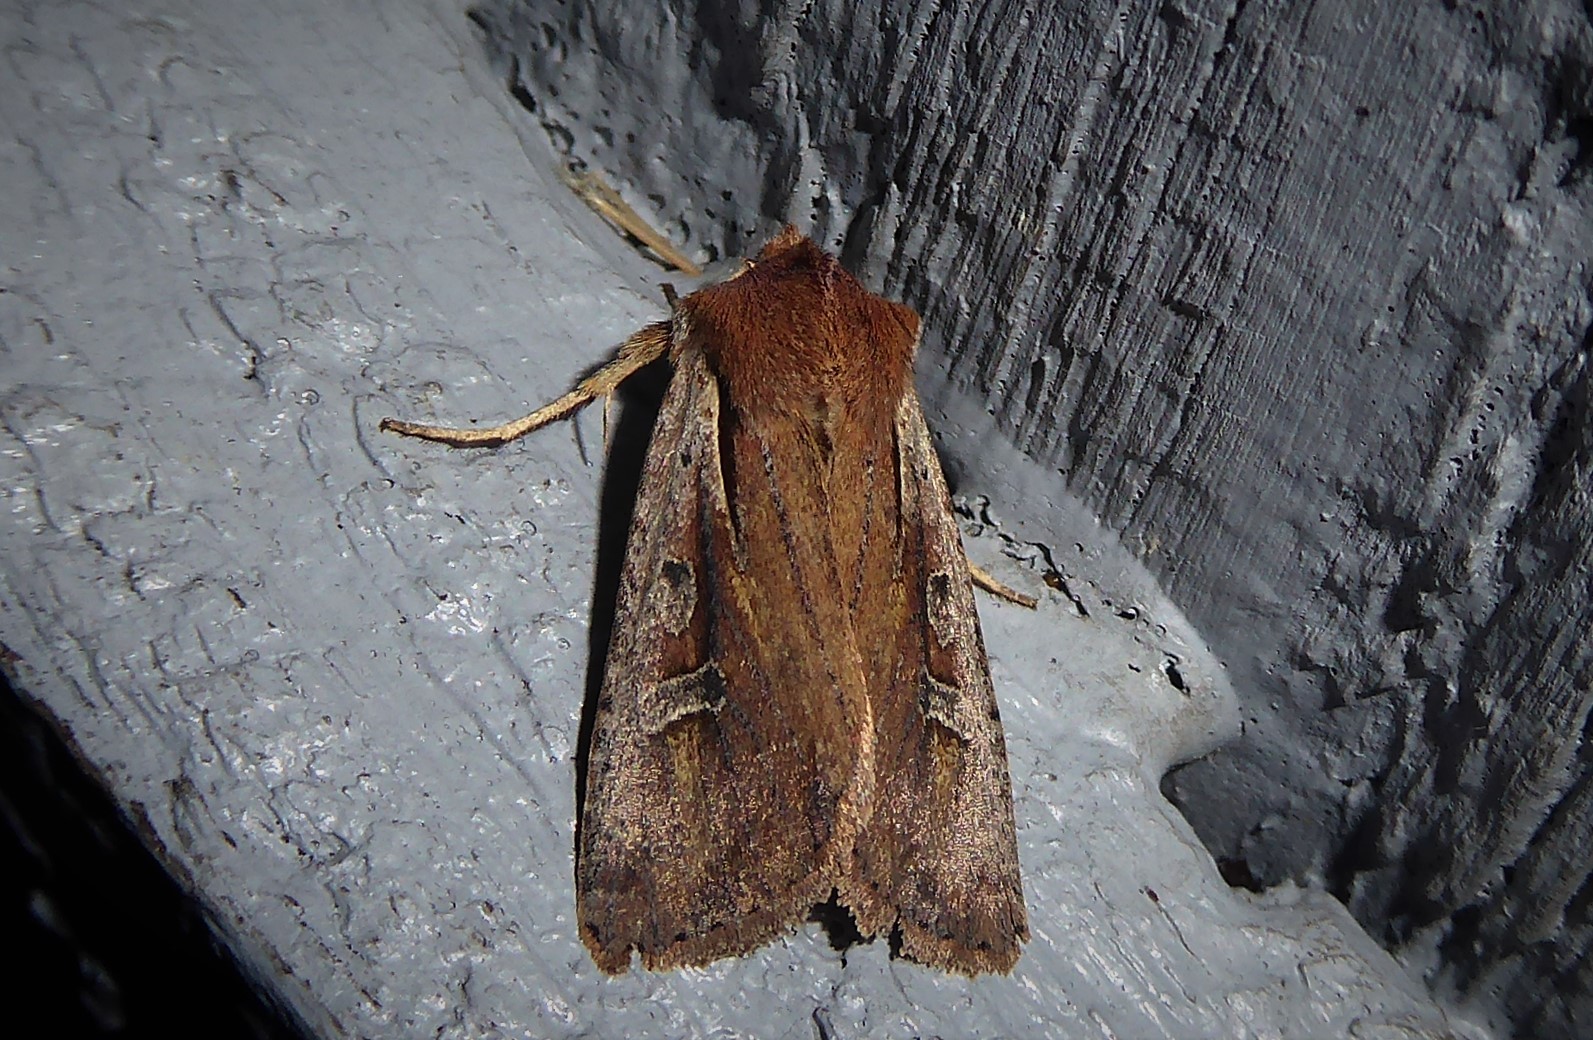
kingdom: Animalia
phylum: Arthropoda
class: Insecta
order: Lepidoptera
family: Noctuidae
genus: Ichneutica
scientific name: Ichneutica atristriga
